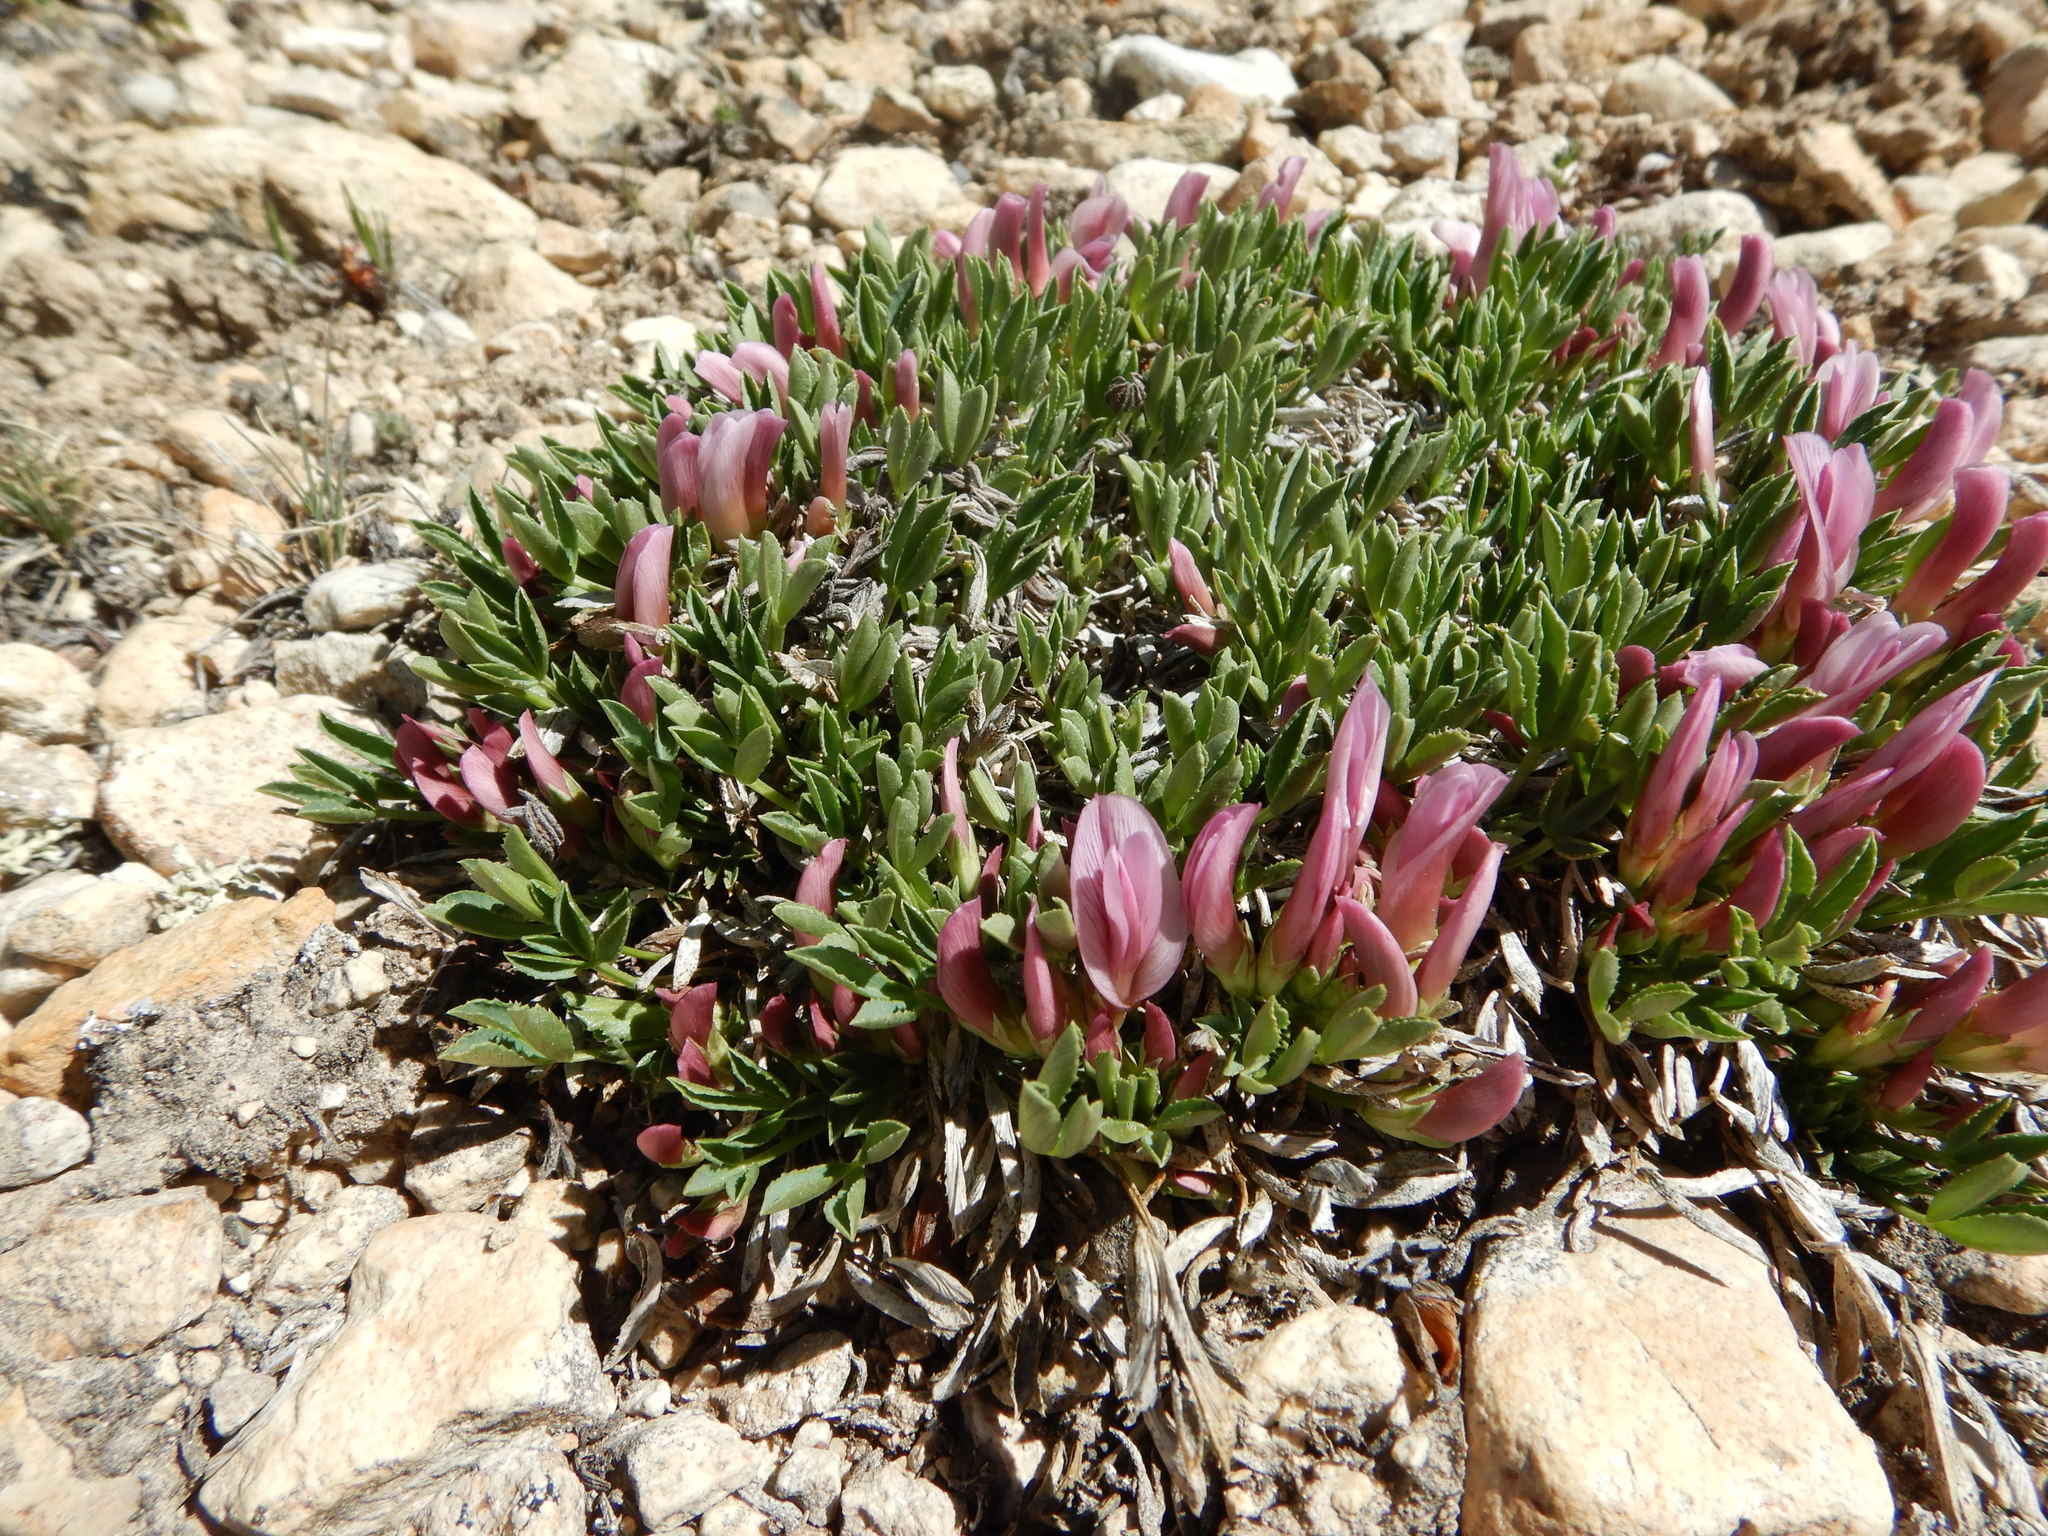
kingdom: Plantae
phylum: Tracheophyta
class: Magnoliopsida
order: Fabales
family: Fabaceae
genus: Trifolium
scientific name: Trifolium nanum
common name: Tundra clover
